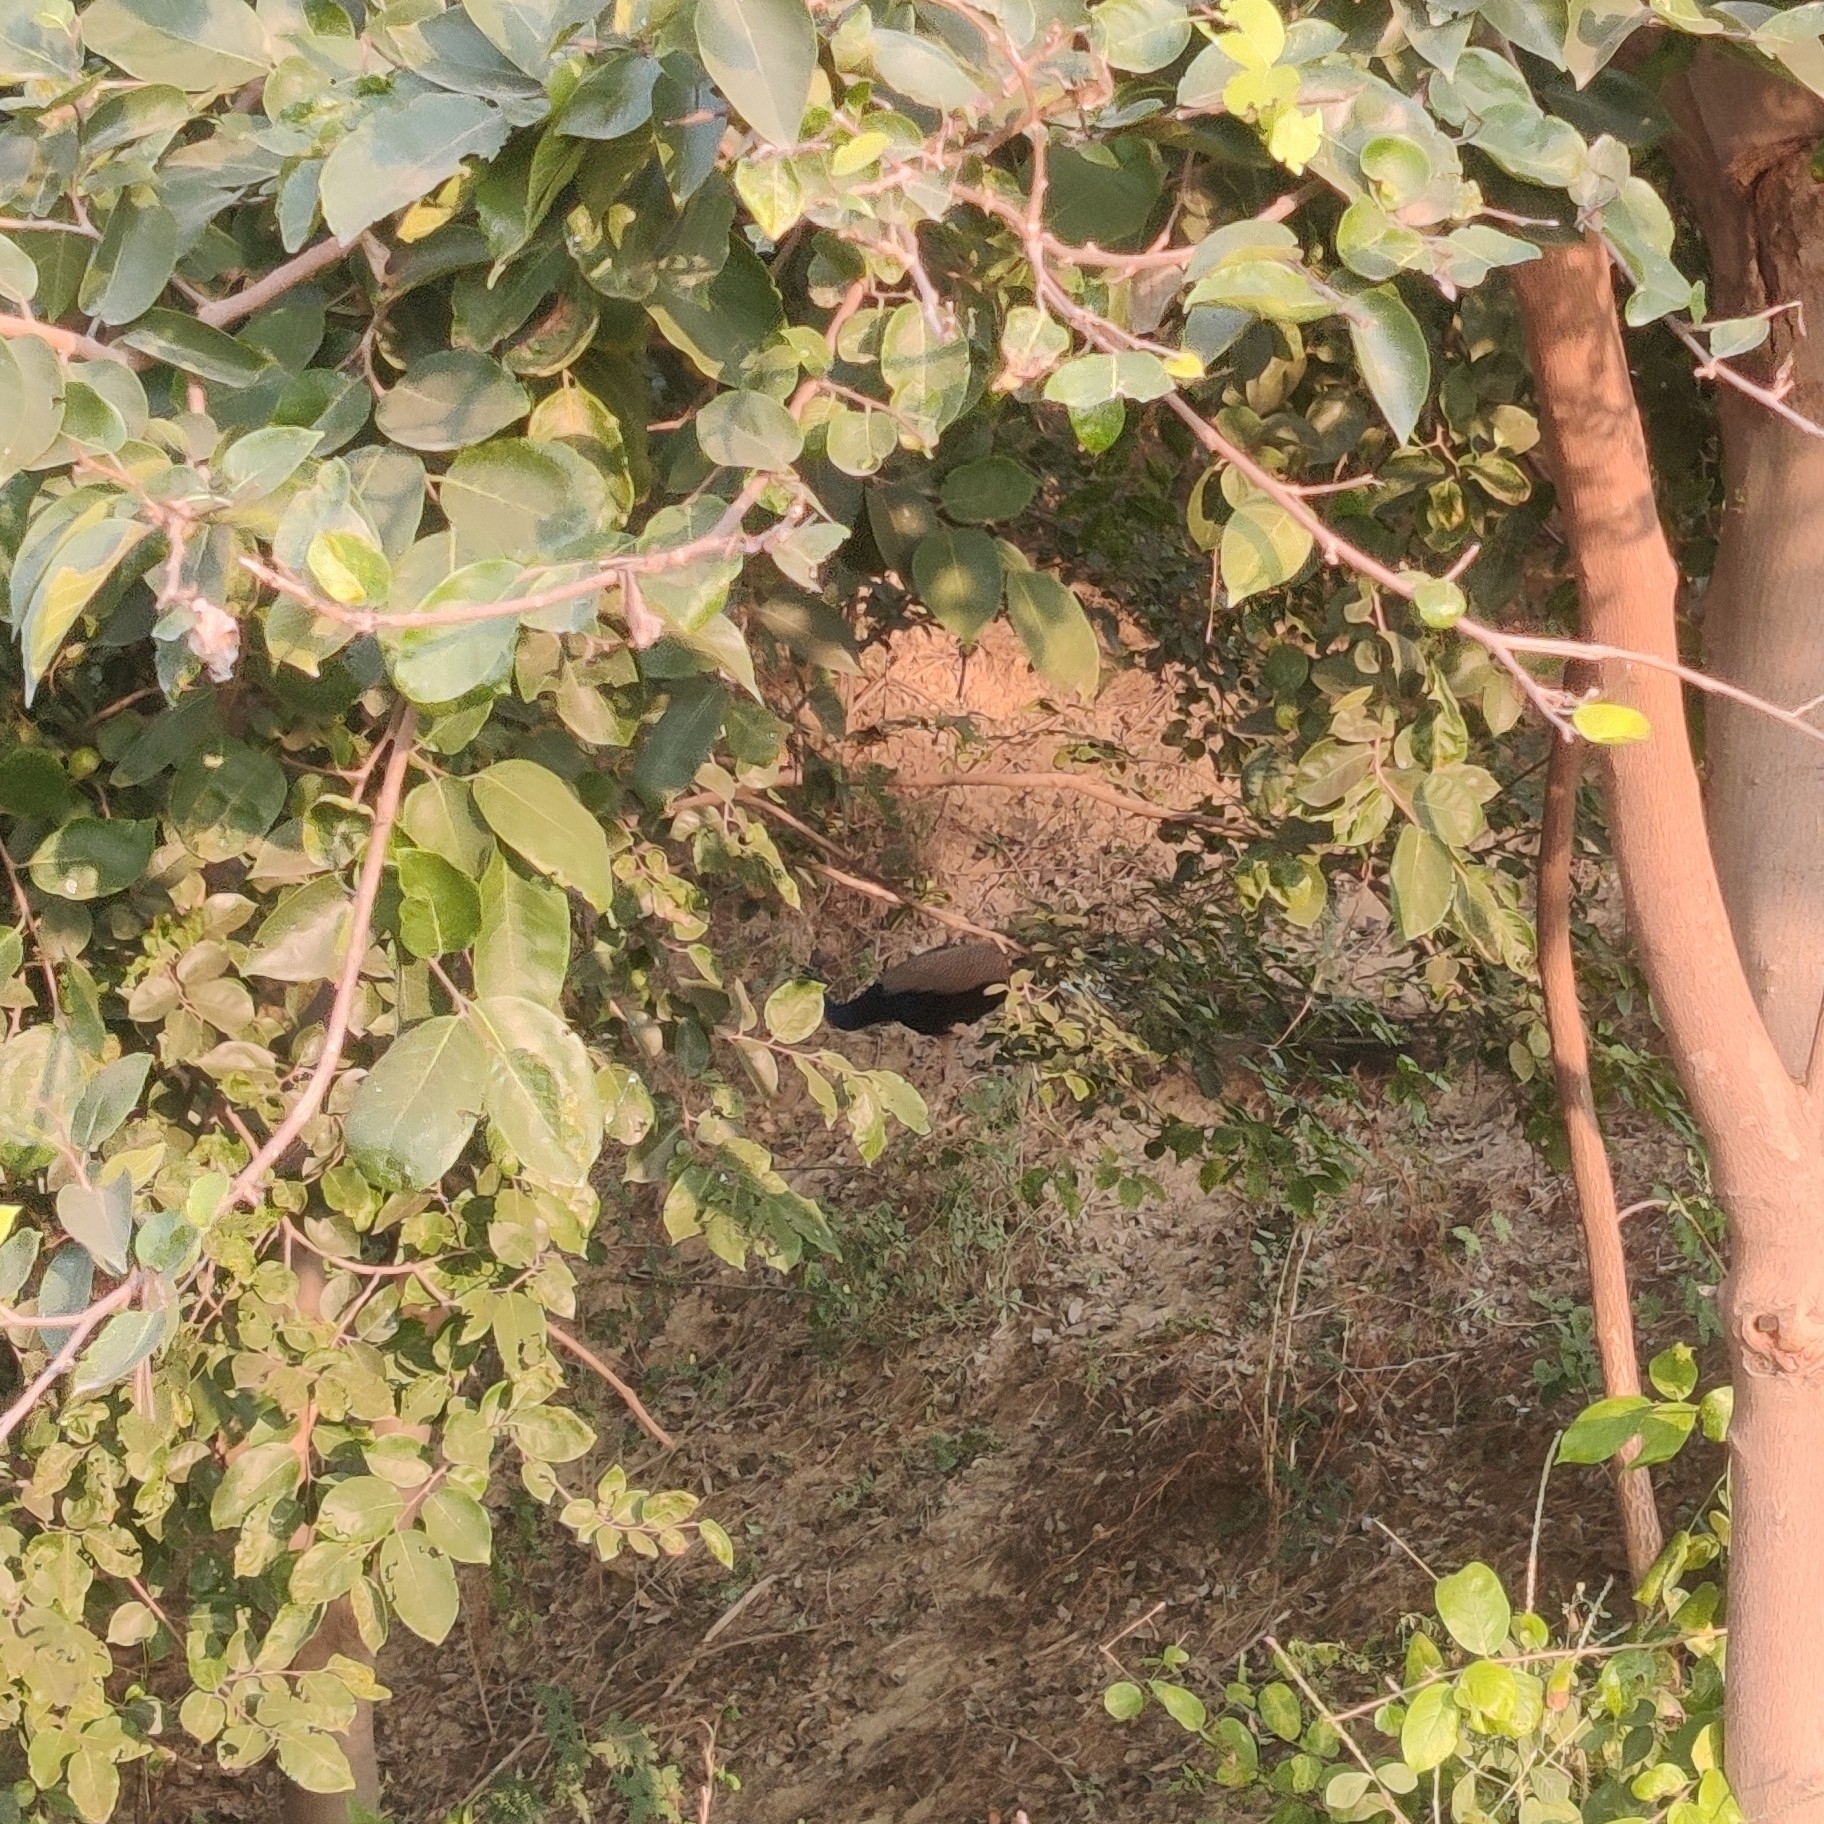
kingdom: Animalia
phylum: Chordata
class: Aves
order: Galliformes
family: Phasianidae
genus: Pavo
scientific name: Pavo cristatus
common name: Indian peafowl
